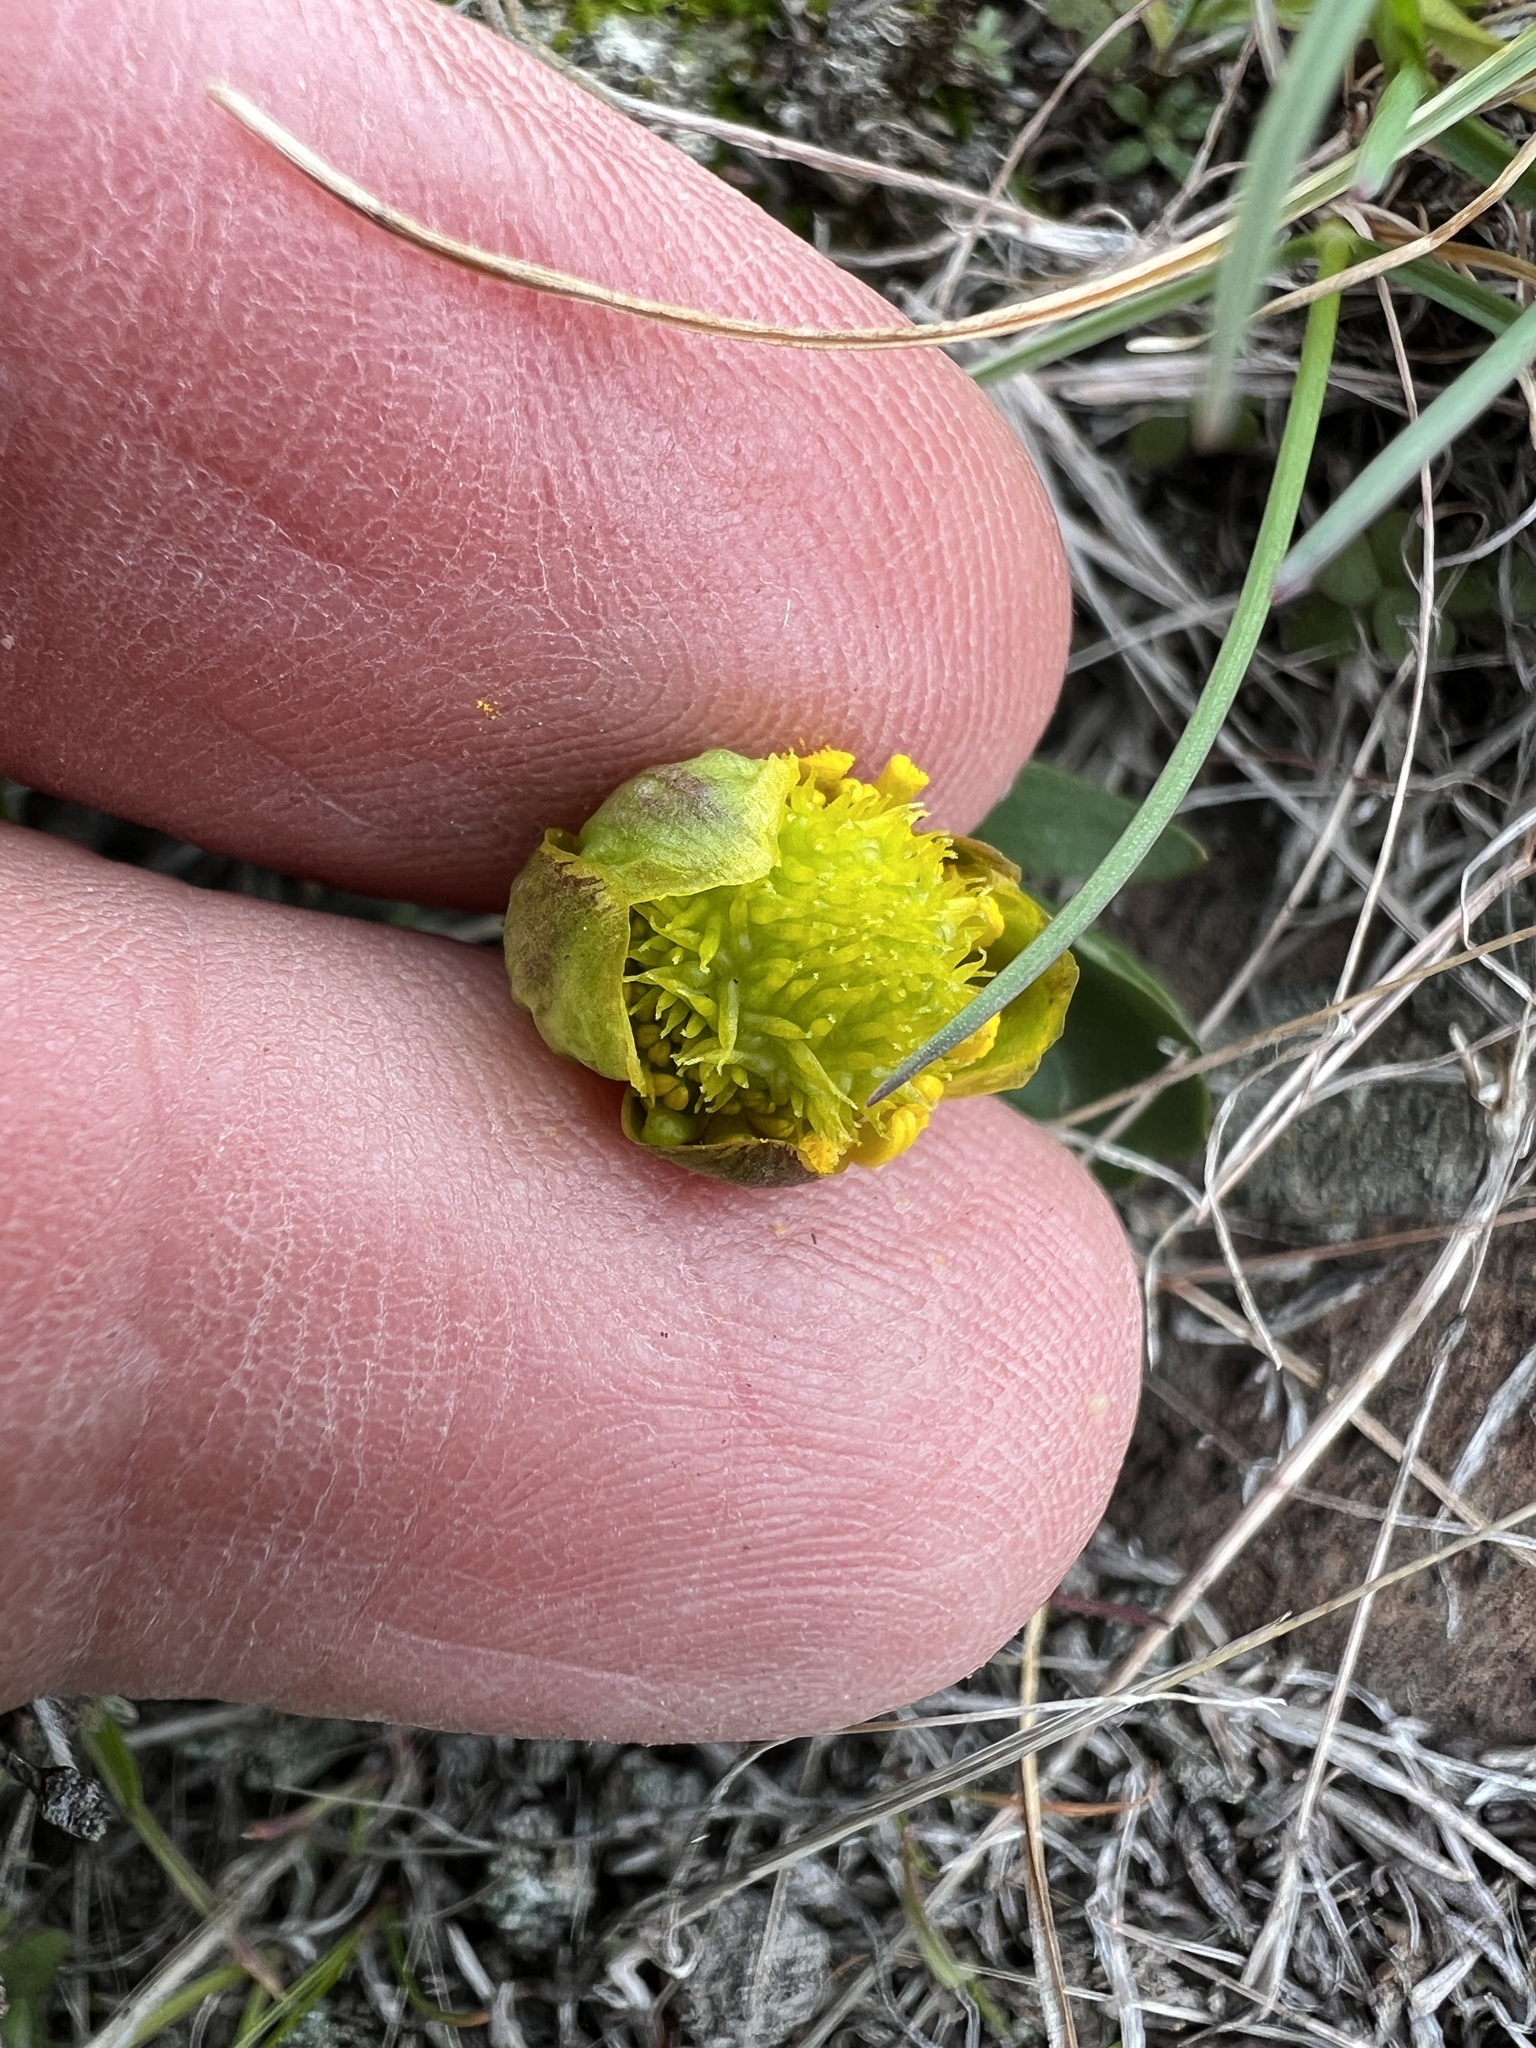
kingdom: Plantae
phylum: Tracheophyta
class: Magnoliopsida
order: Ranunculales
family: Ranunculaceae
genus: Ranunculus
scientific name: Ranunculus glaberrimus
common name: Sagebrush buttercup
